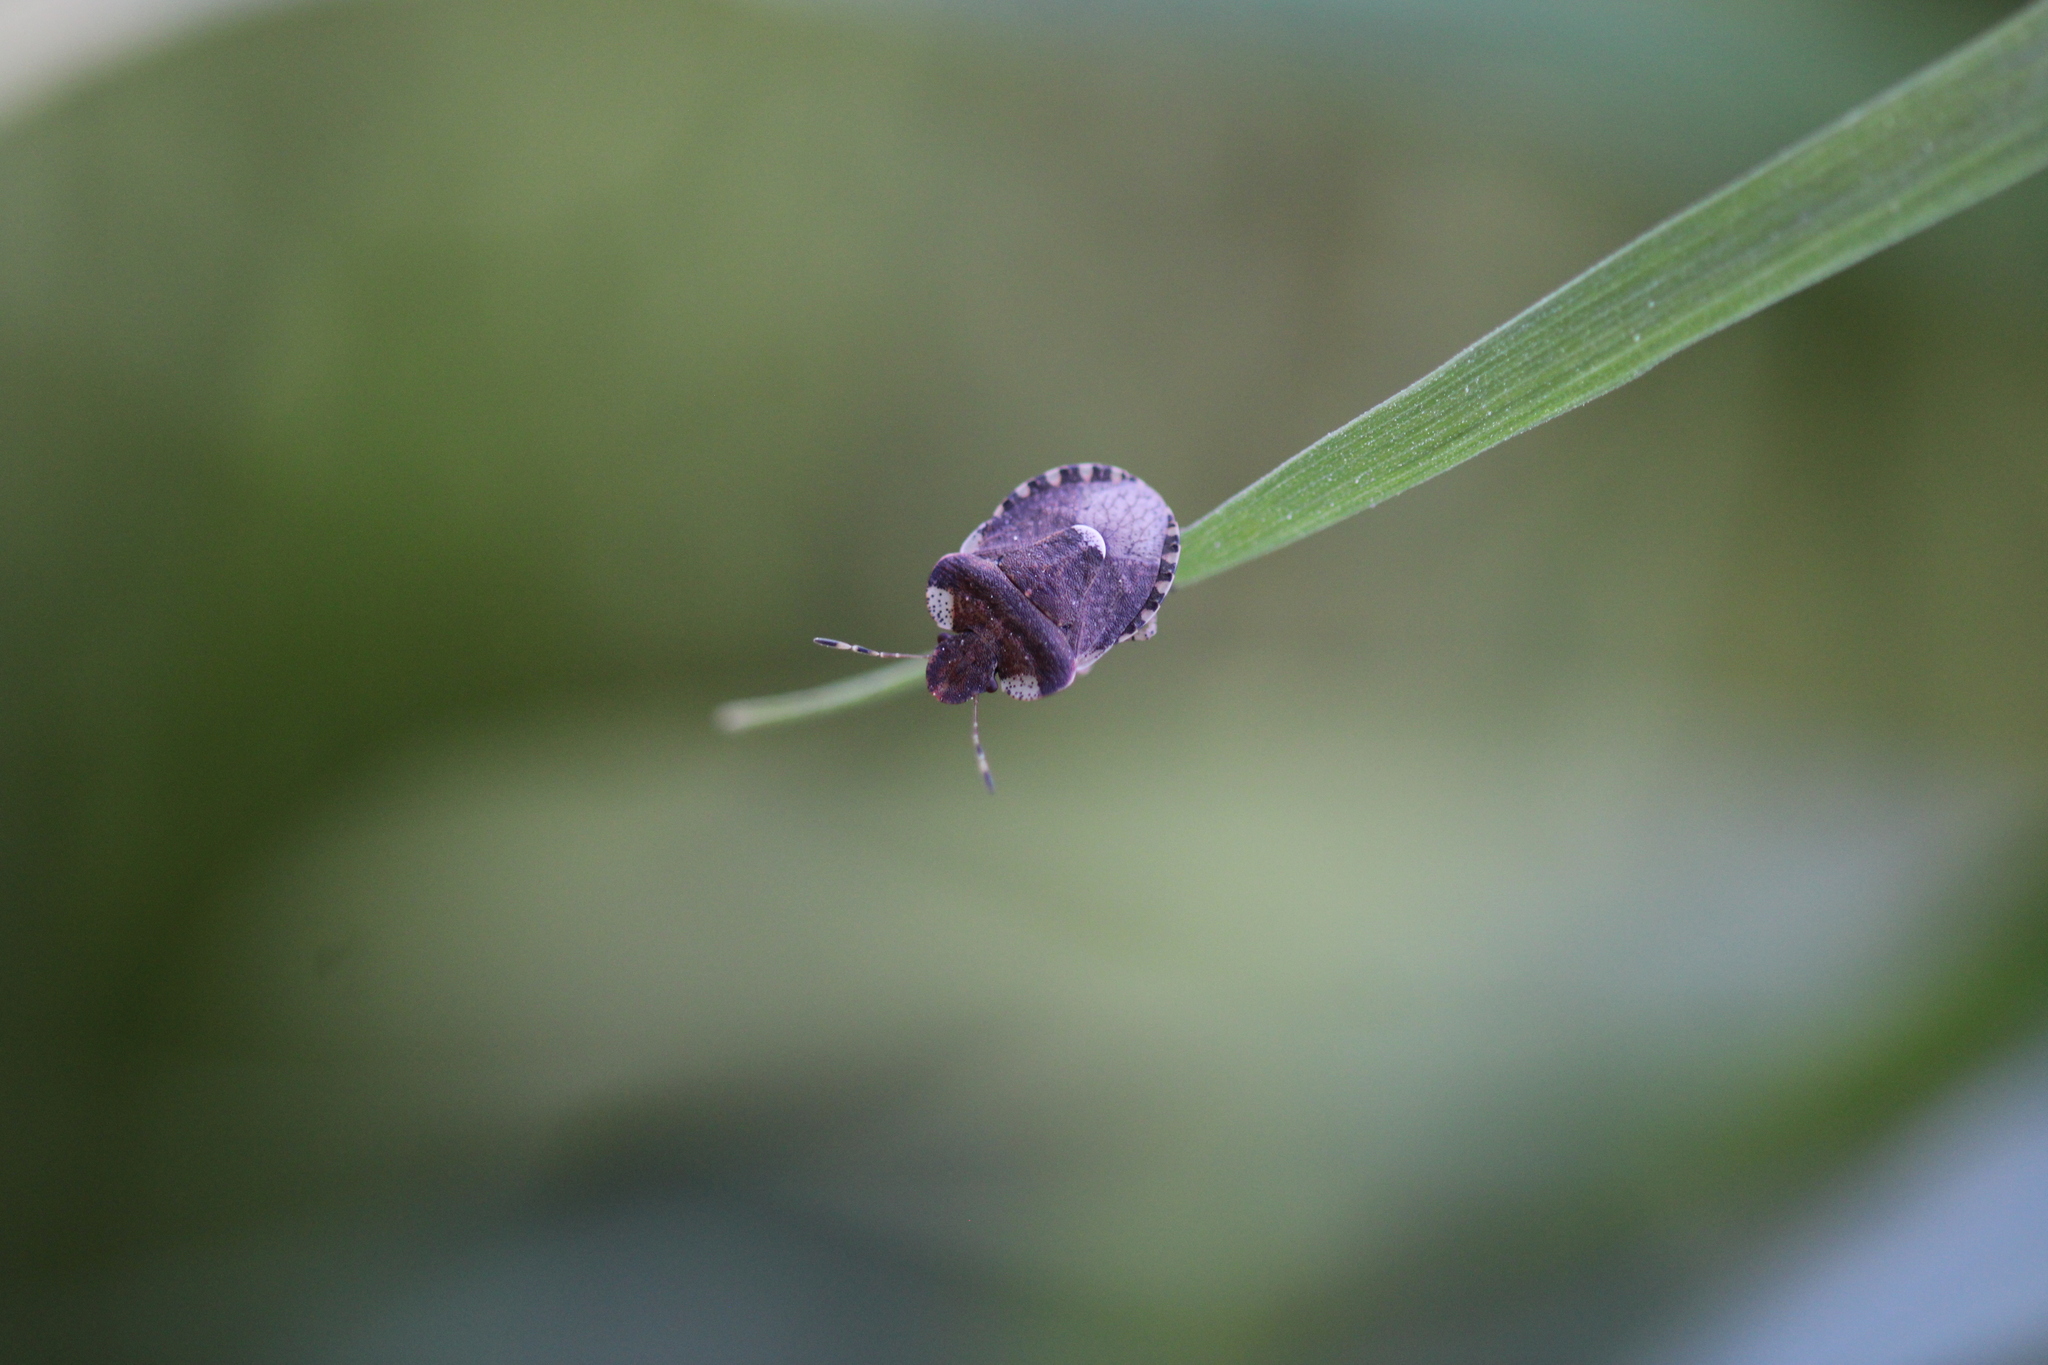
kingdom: Animalia
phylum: Arthropoda
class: Insecta
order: Hemiptera
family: Pentatomidae
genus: Dyroderes
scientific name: Dyroderes umbraculatus
